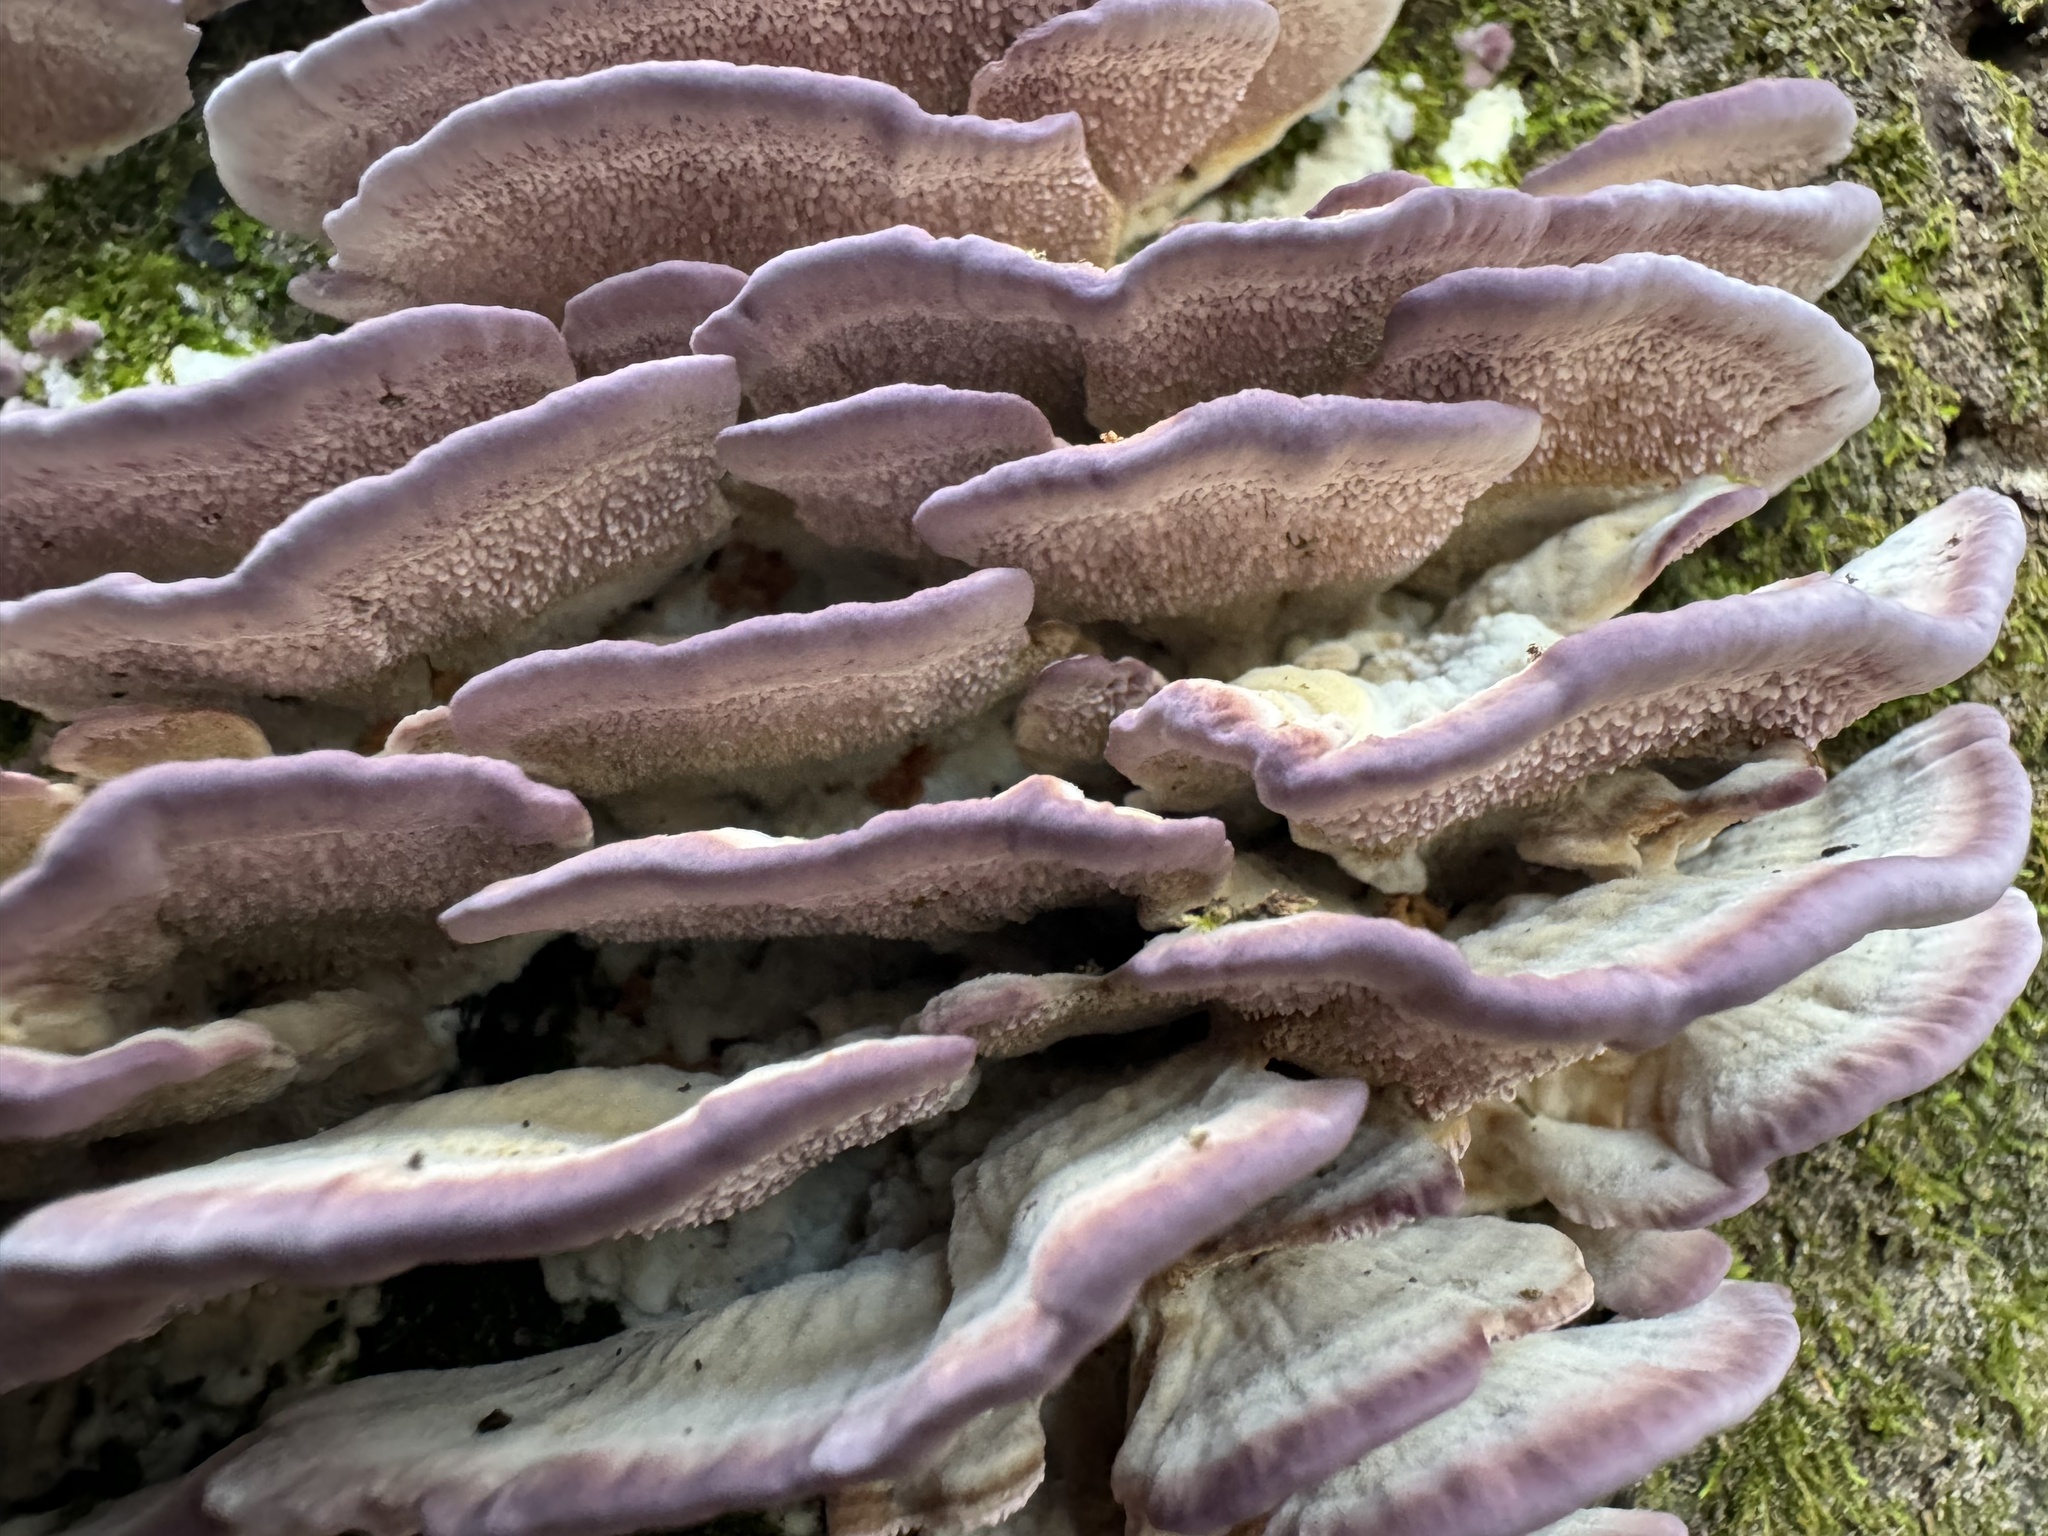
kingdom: Fungi
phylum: Basidiomycota
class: Agaricomycetes
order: Hymenochaetales
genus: Trichaptum
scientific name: Trichaptum biforme
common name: Violet-toothed polypore
